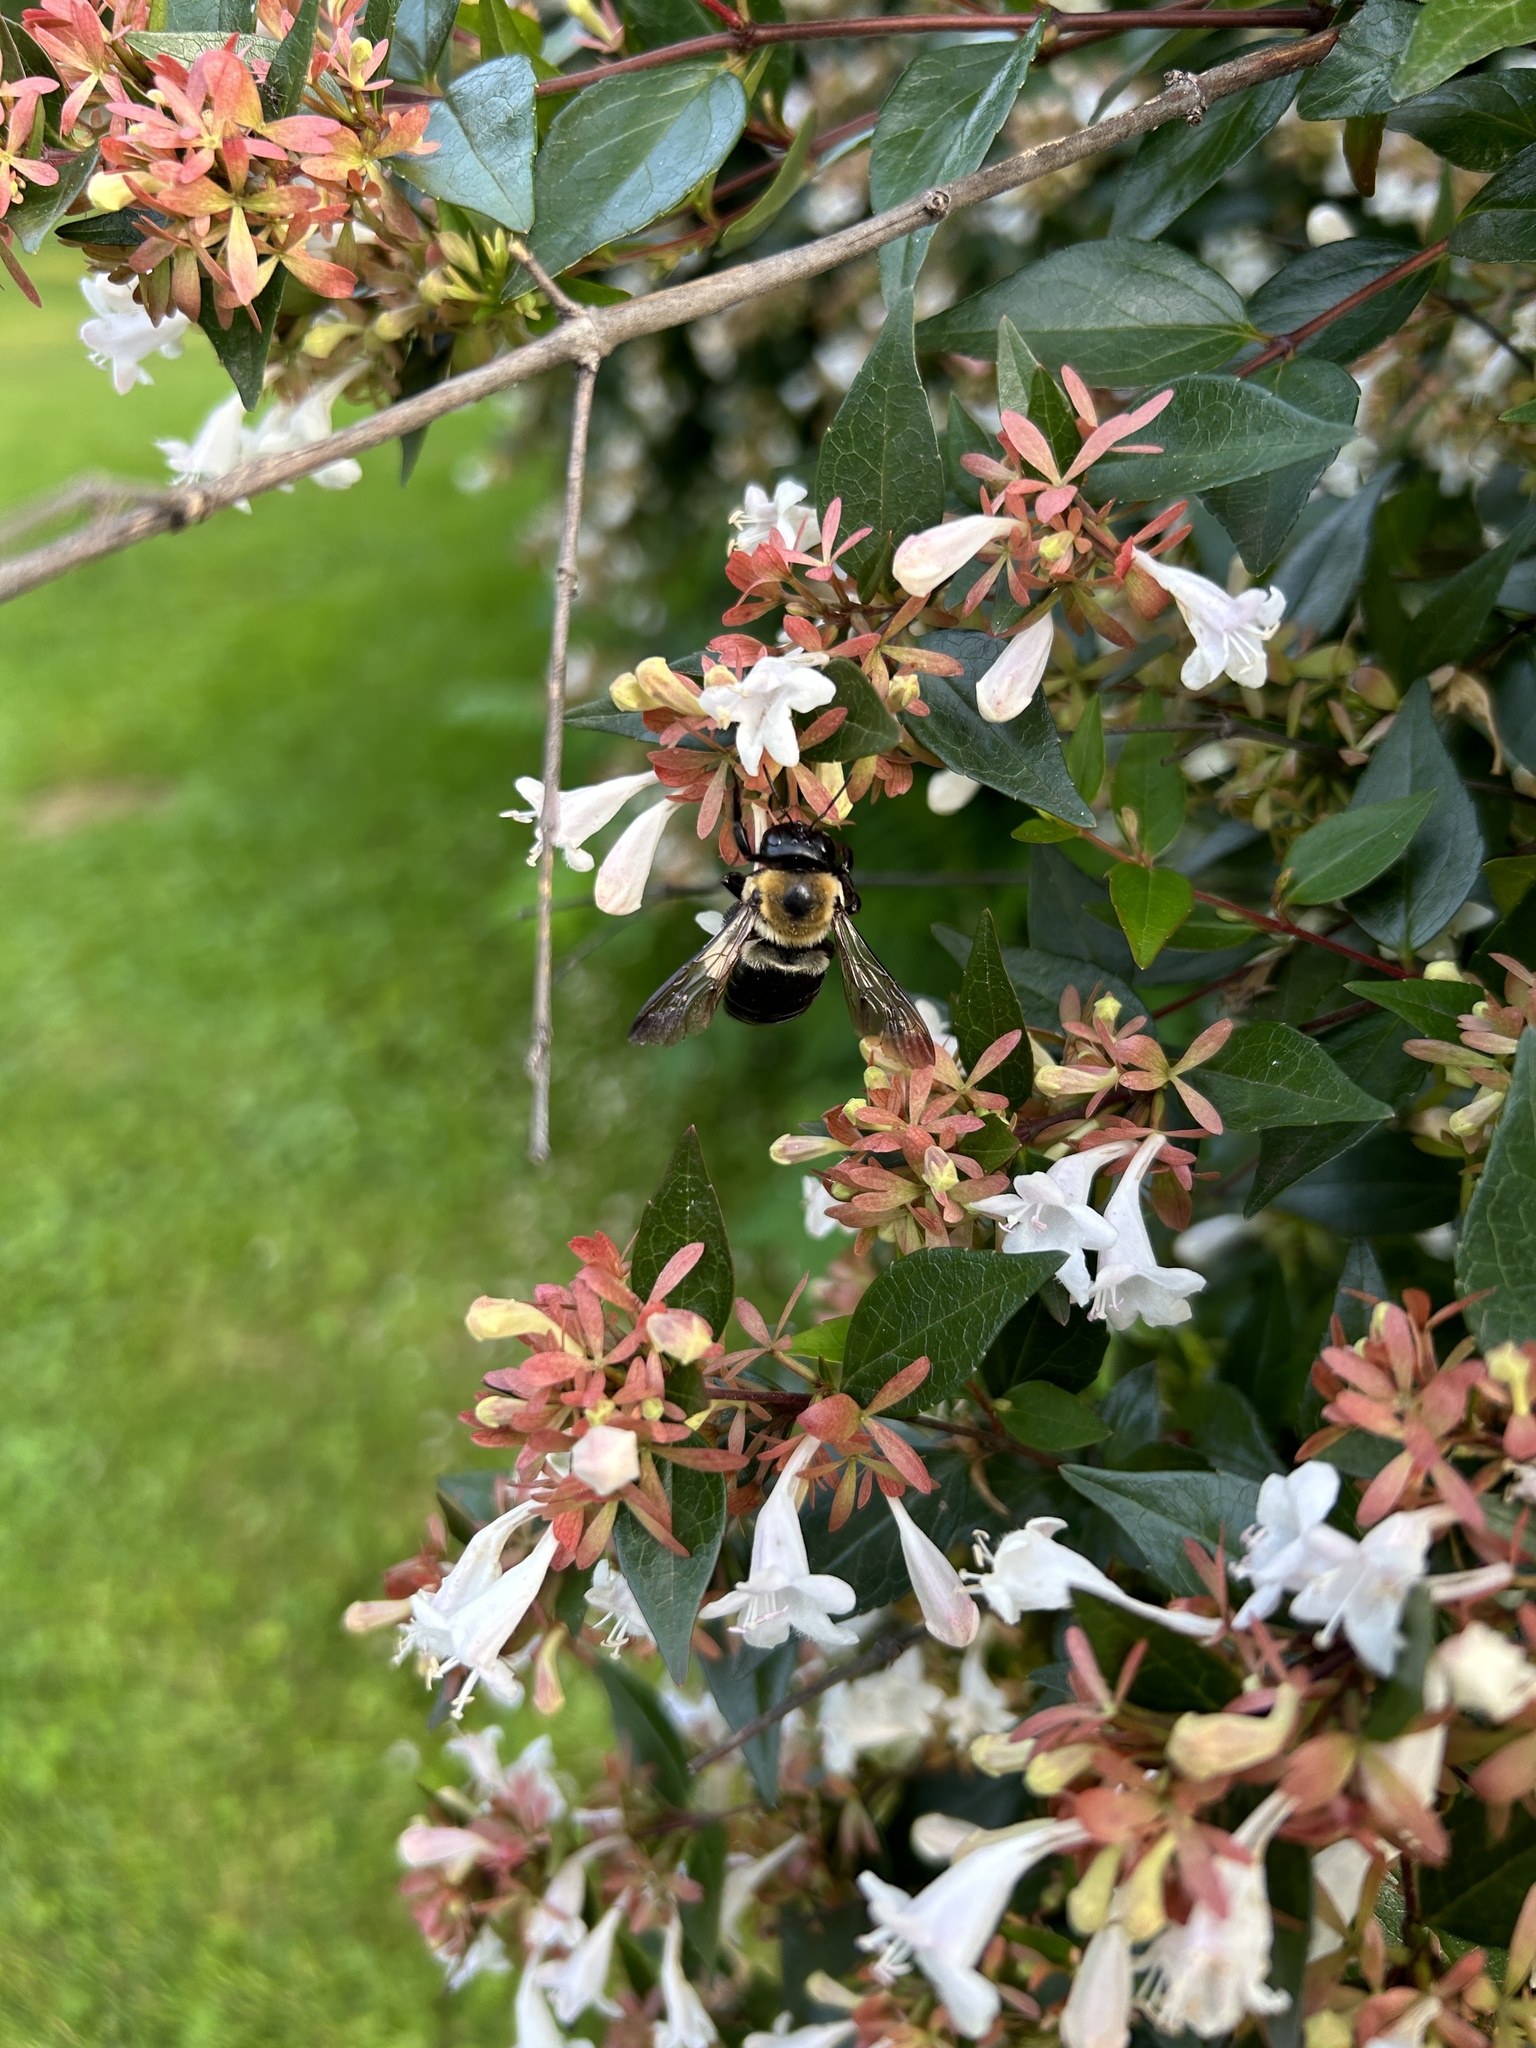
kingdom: Animalia
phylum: Arthropoda
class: Insecta
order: Hymenoptera
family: Apidae
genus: Xylocopa
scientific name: Xylocopa virginica
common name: Carpenter bee
